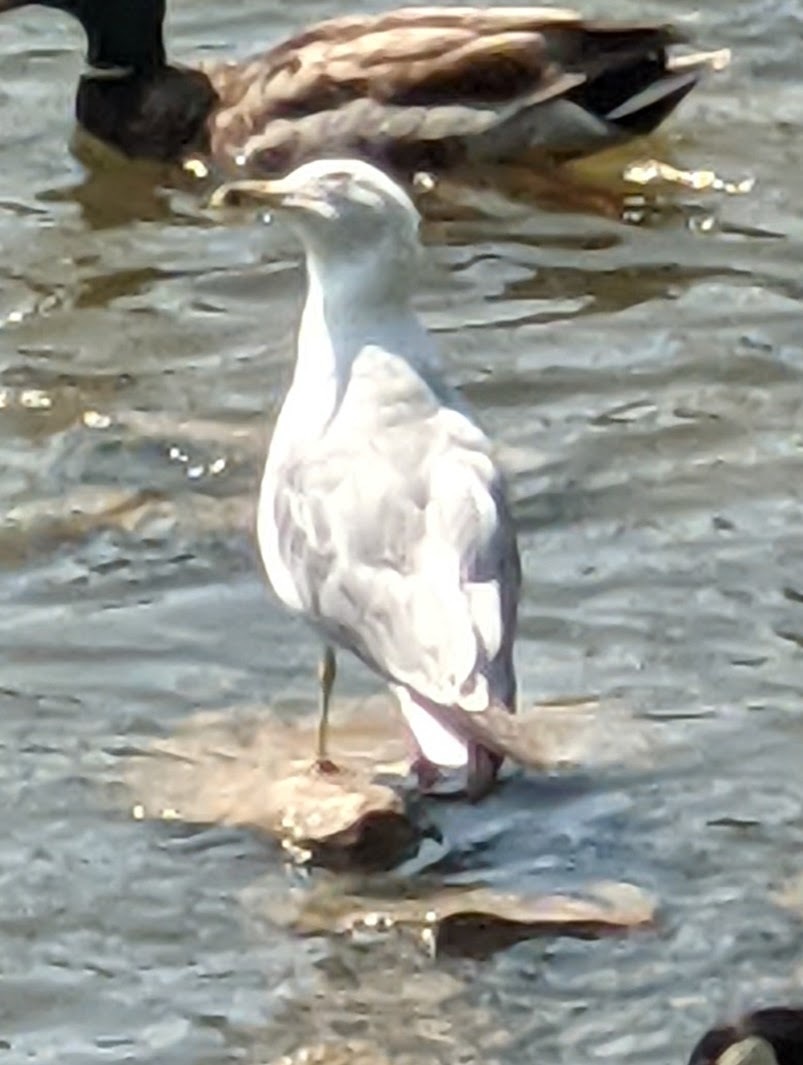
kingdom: Animalia
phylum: Chordata
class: Aves
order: Charadriiformes
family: Laridae
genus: Larus
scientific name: Larus delawarensis
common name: Ring-billed gull
